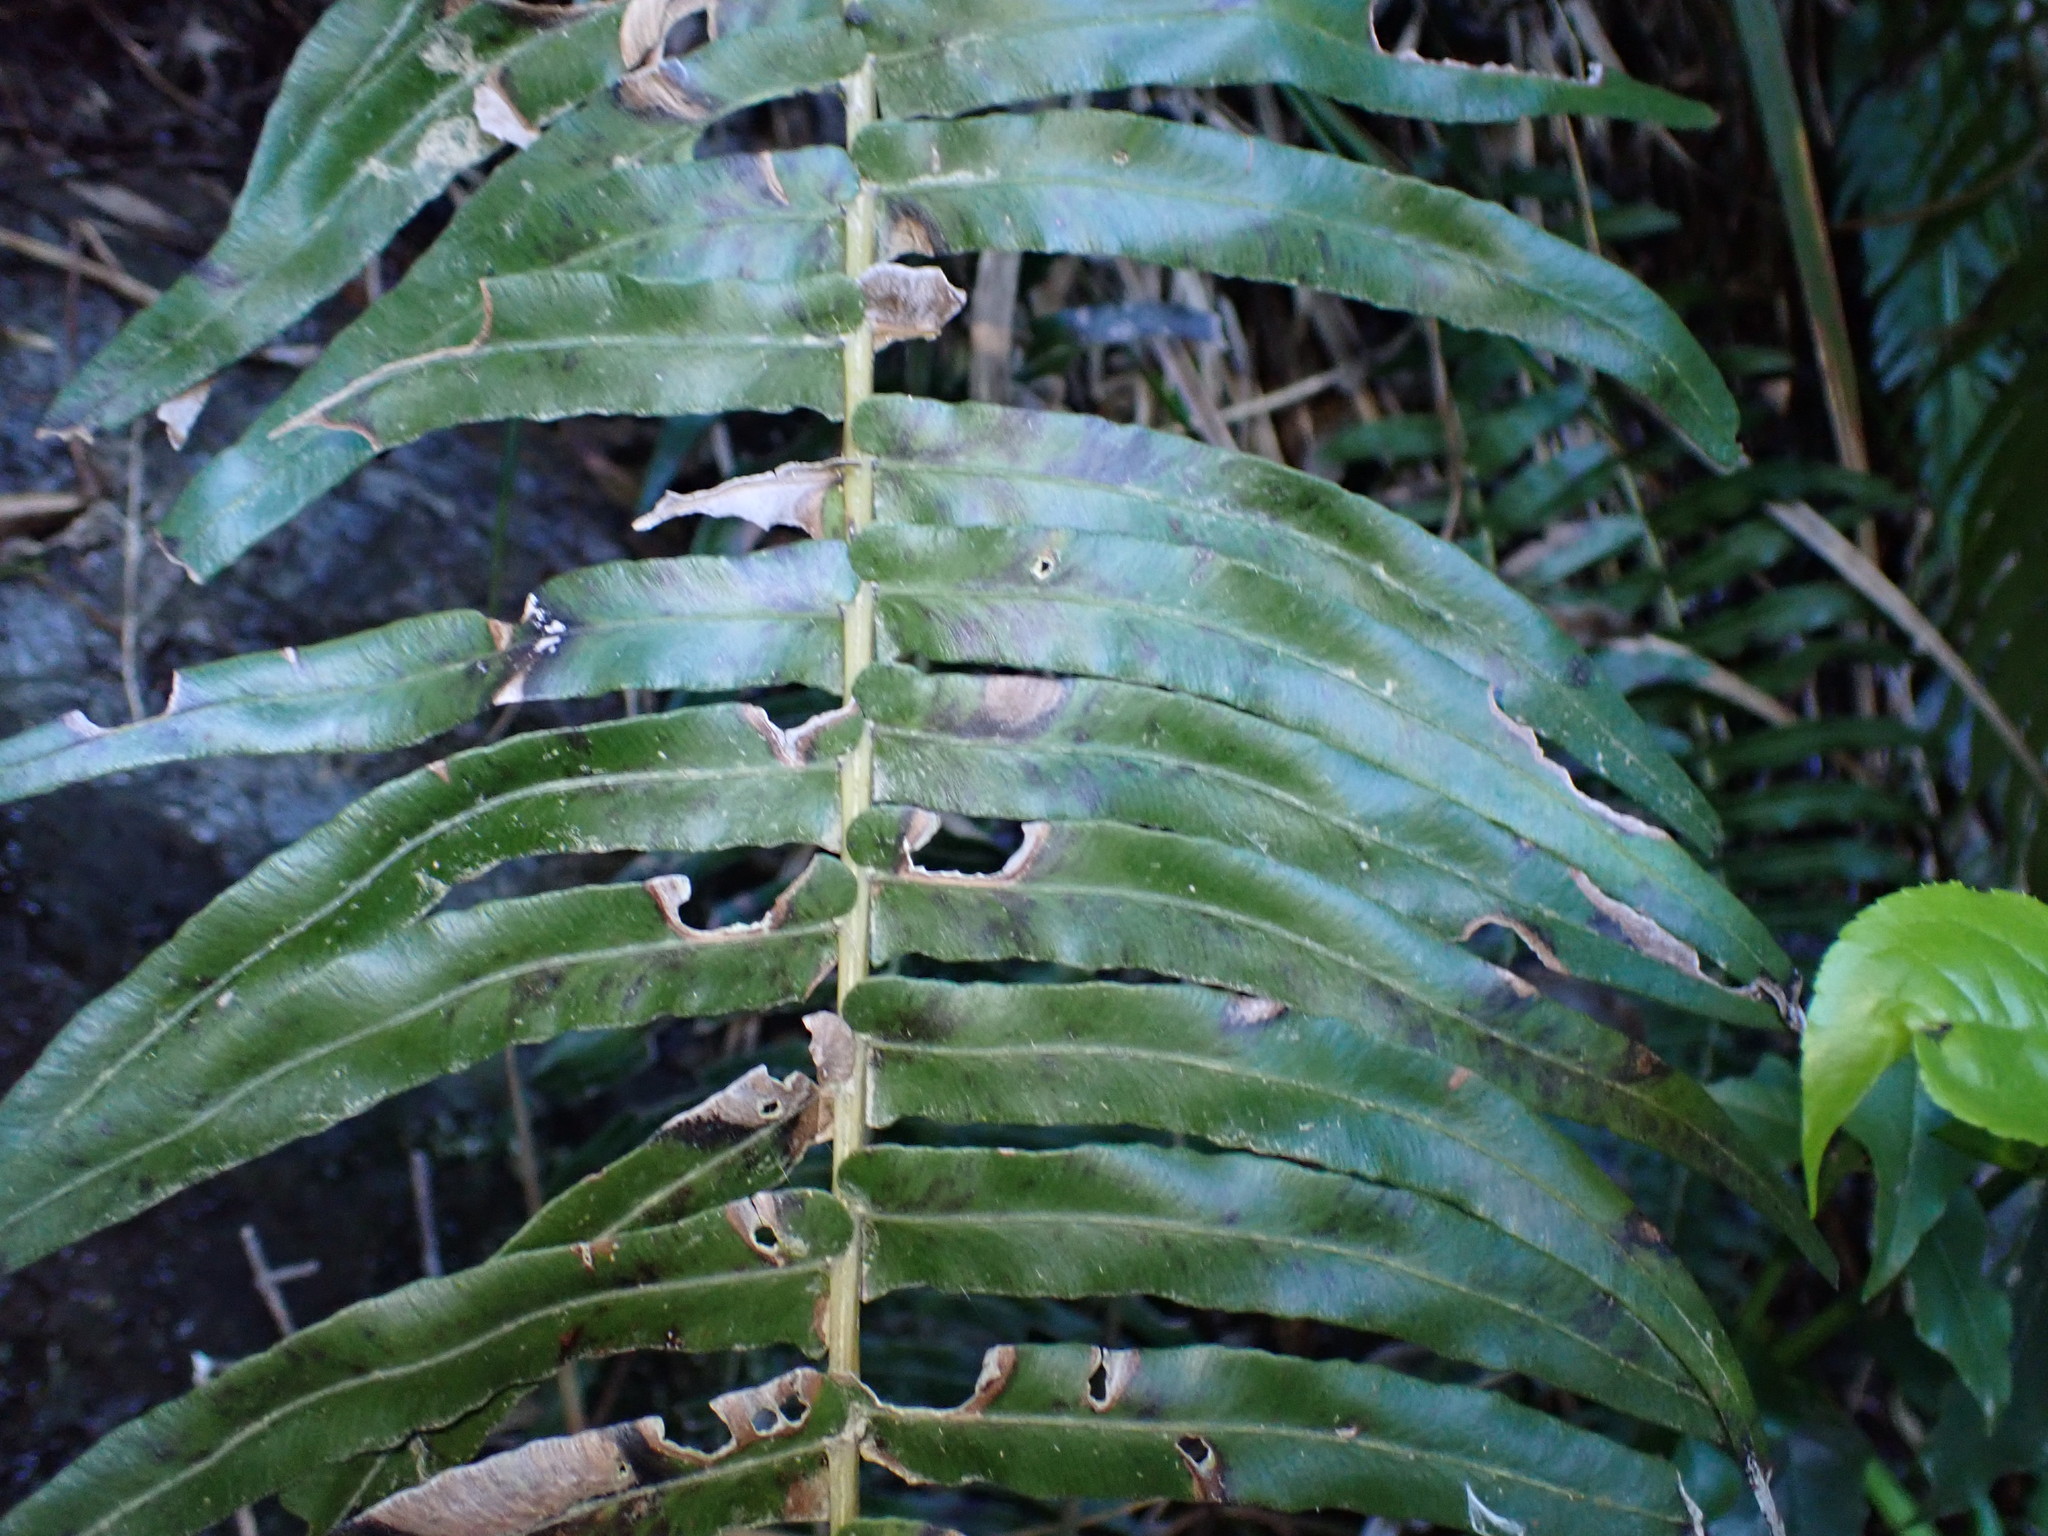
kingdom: Plantae
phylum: Tracheophyta
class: Polypodiopsida
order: Polypodiales
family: Blechnaceae
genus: Lomaridium
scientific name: Lomaridium attenuatum
